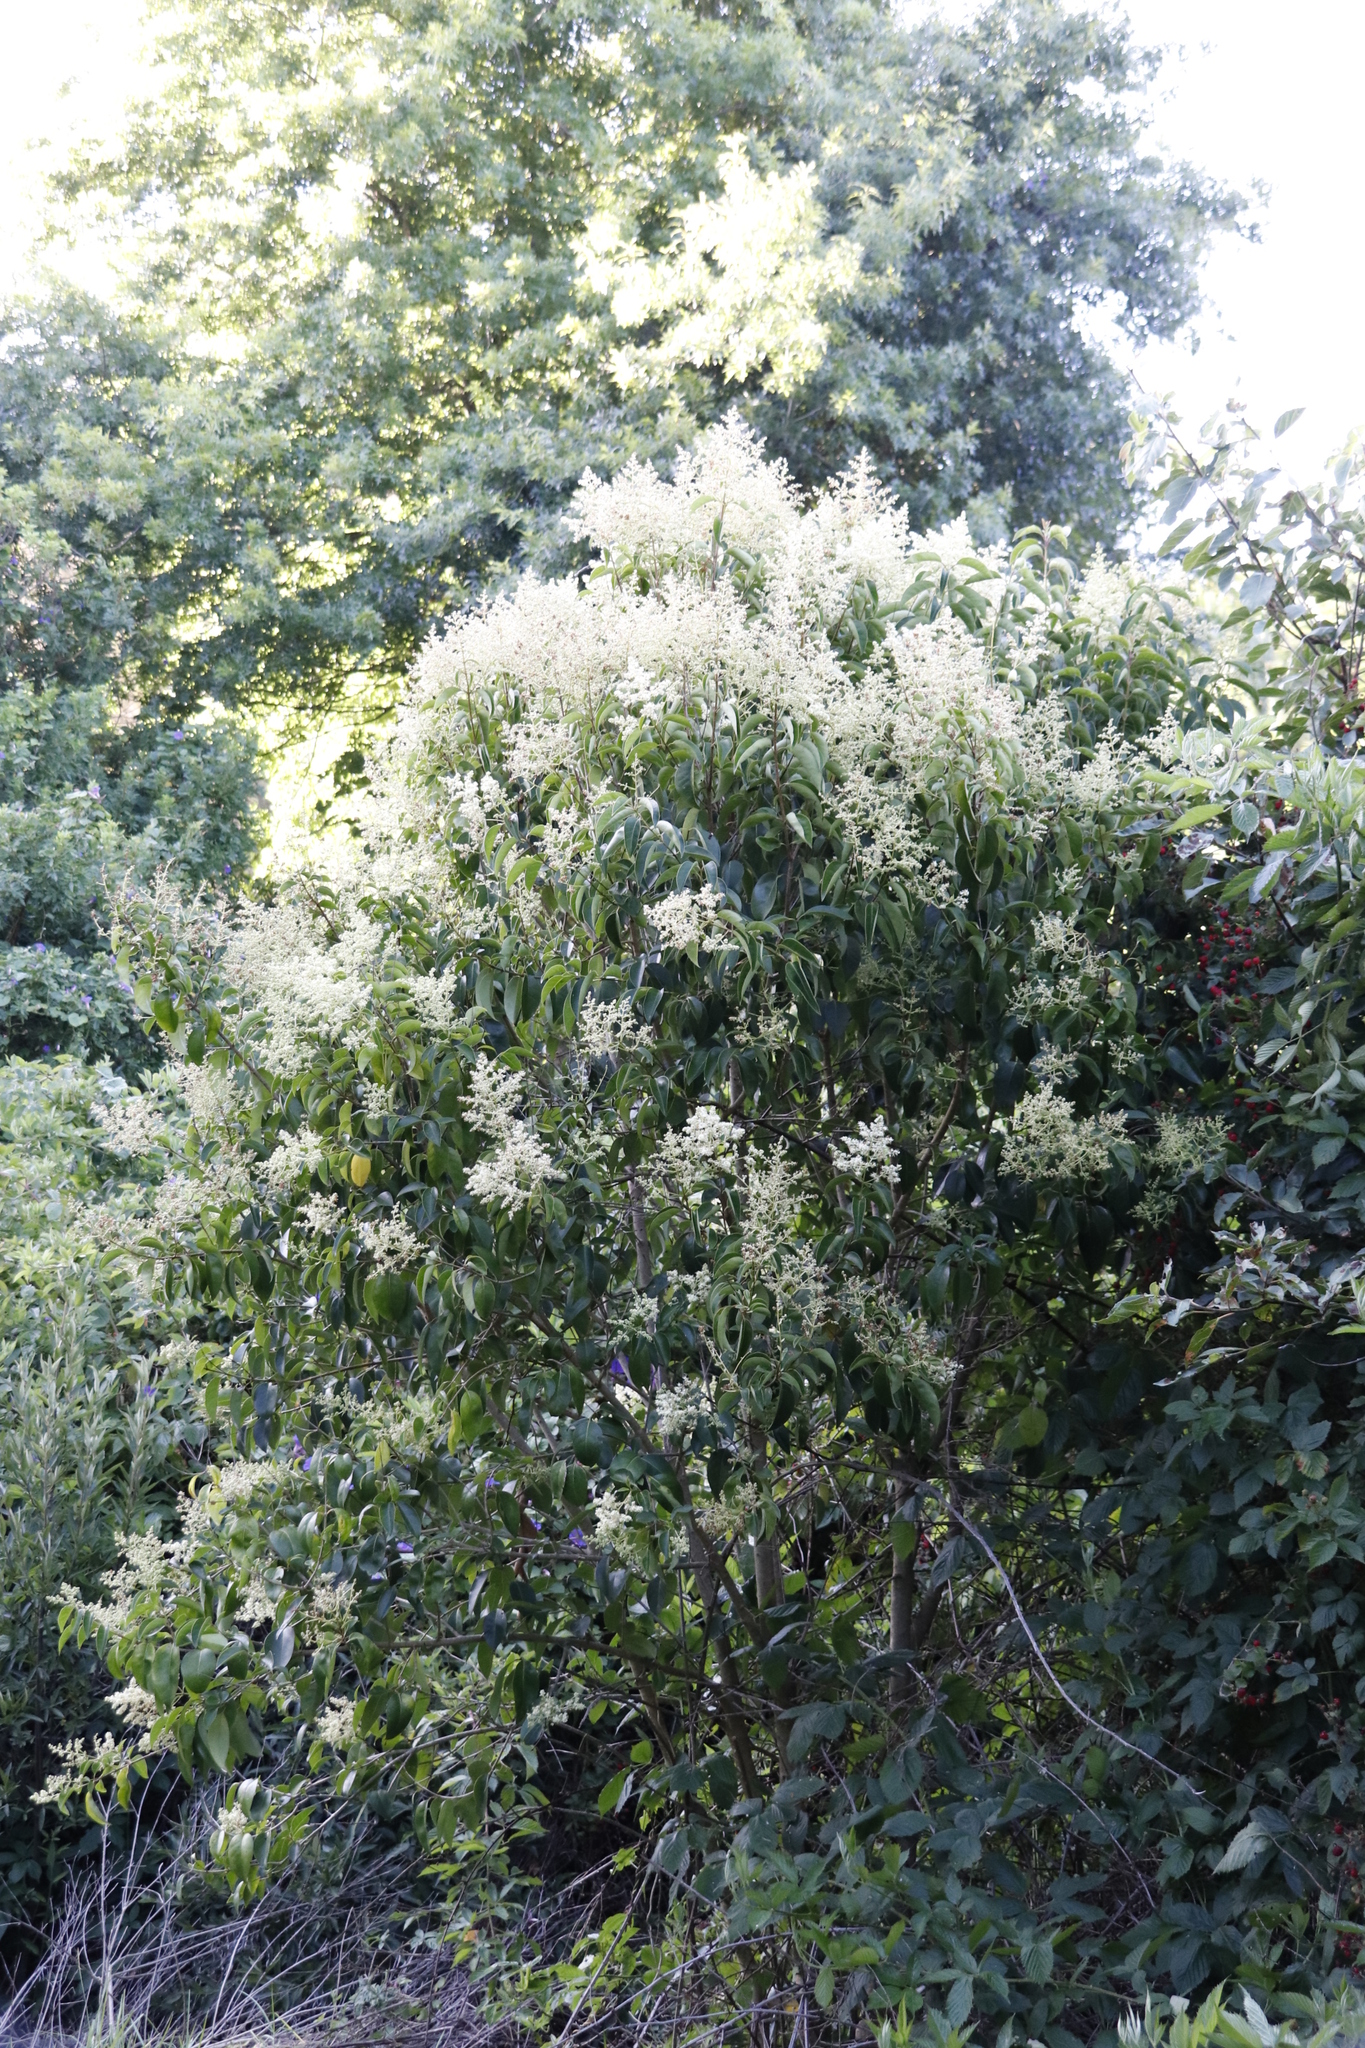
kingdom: Plantae
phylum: Tracheophyta
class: Magnoliopsida
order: Lamiales
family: Oleaceae
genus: Ligustrum
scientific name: Ligustrum lucidum
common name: Glossy privet
